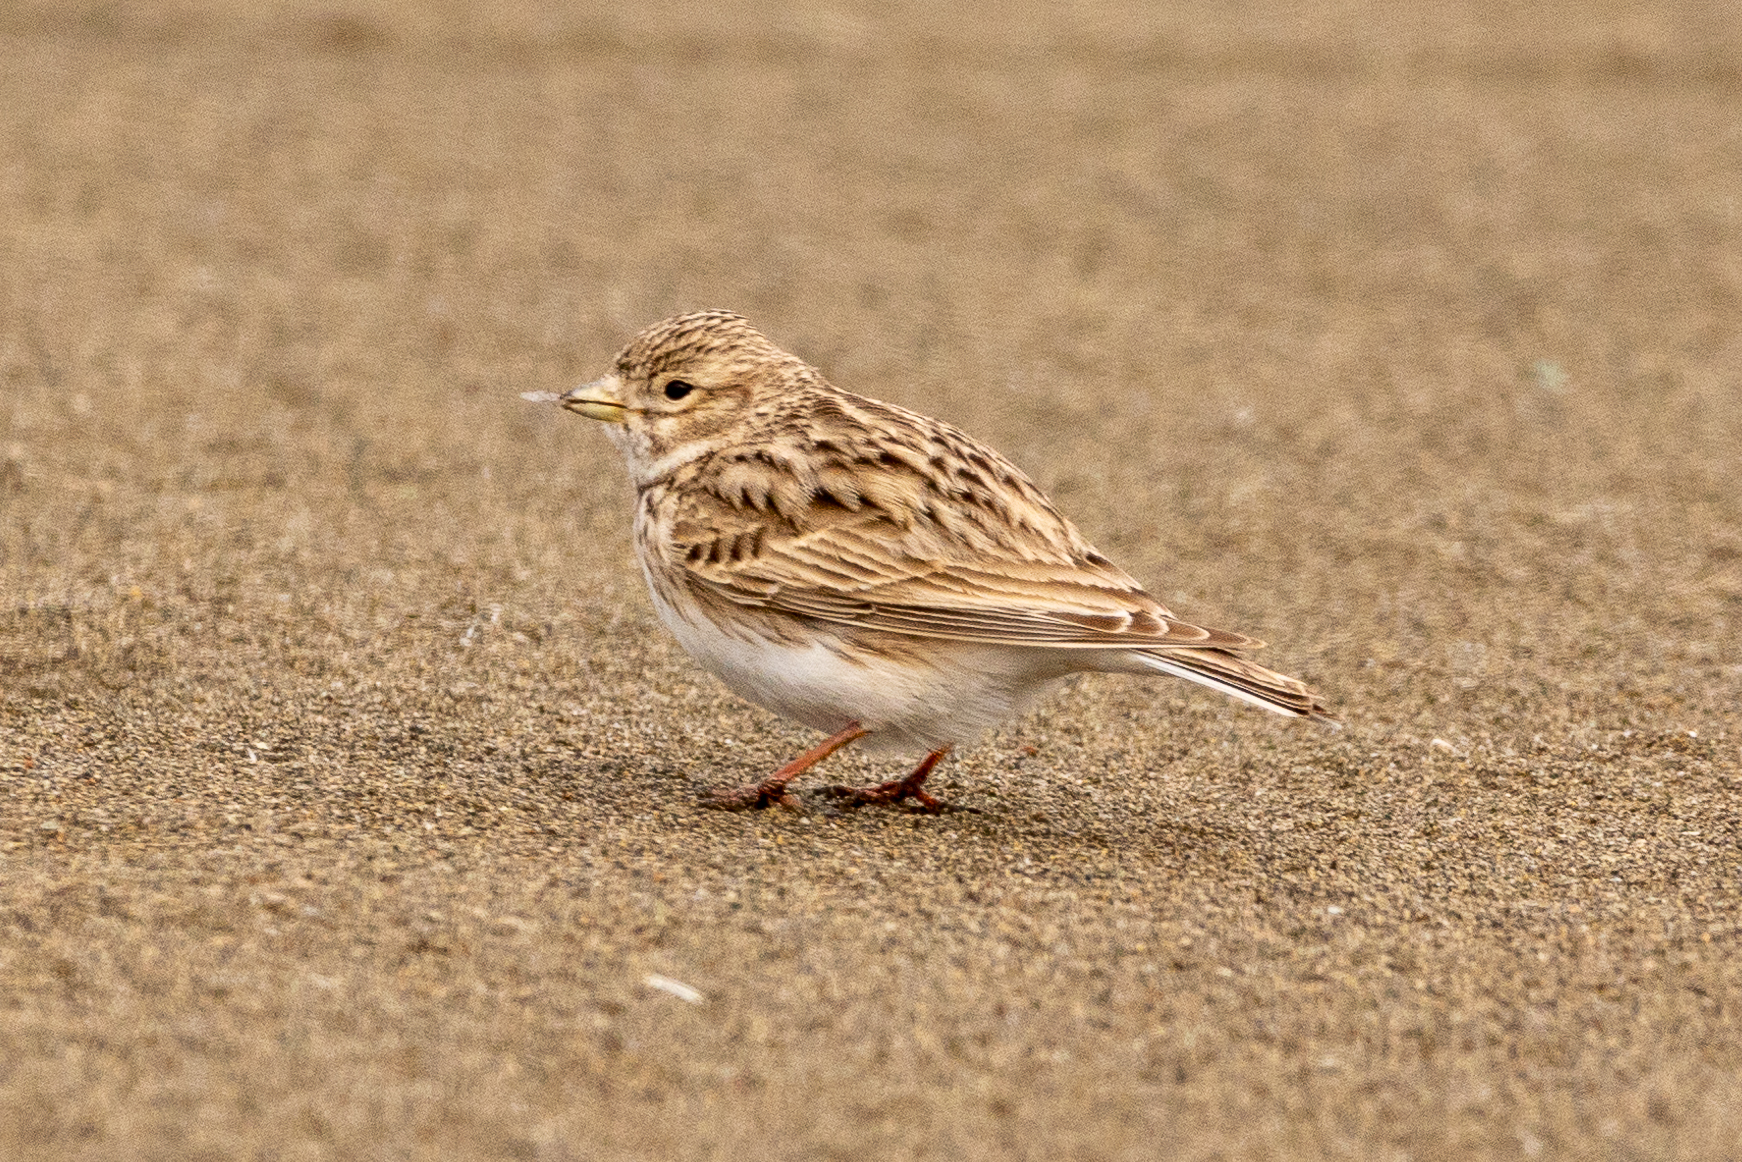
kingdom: Animalia
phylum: Chordata
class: Aves
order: Passeriformes
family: Alaudidae
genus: Calandrella
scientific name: Calandrella rufescens
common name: Lesser short-toed lark
